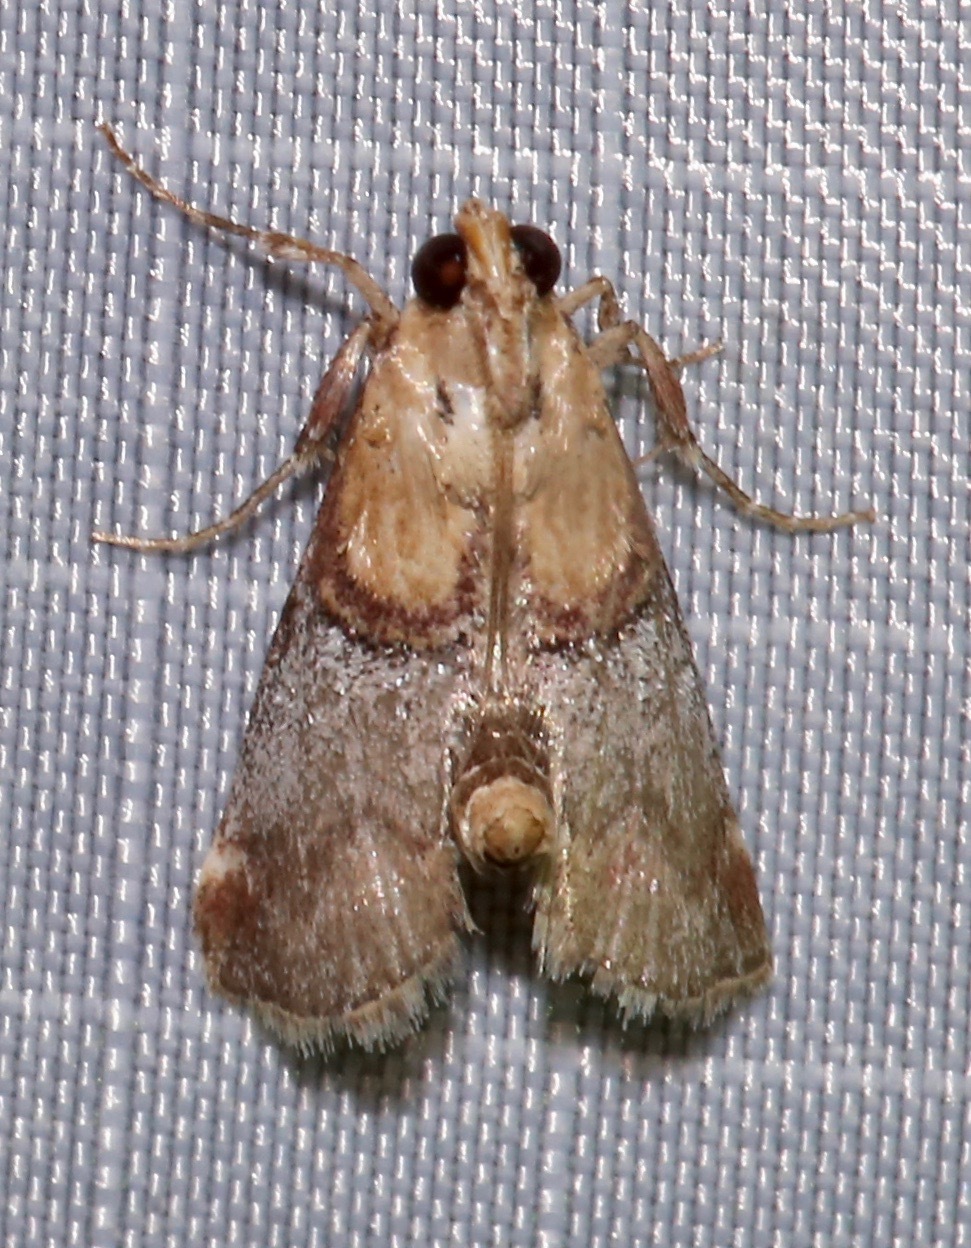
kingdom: Animalia
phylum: Arthropoda
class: Insecta
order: Lepidoptera
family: Pyralidae
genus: Cacozelia
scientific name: Cacozelia basiochrealis
